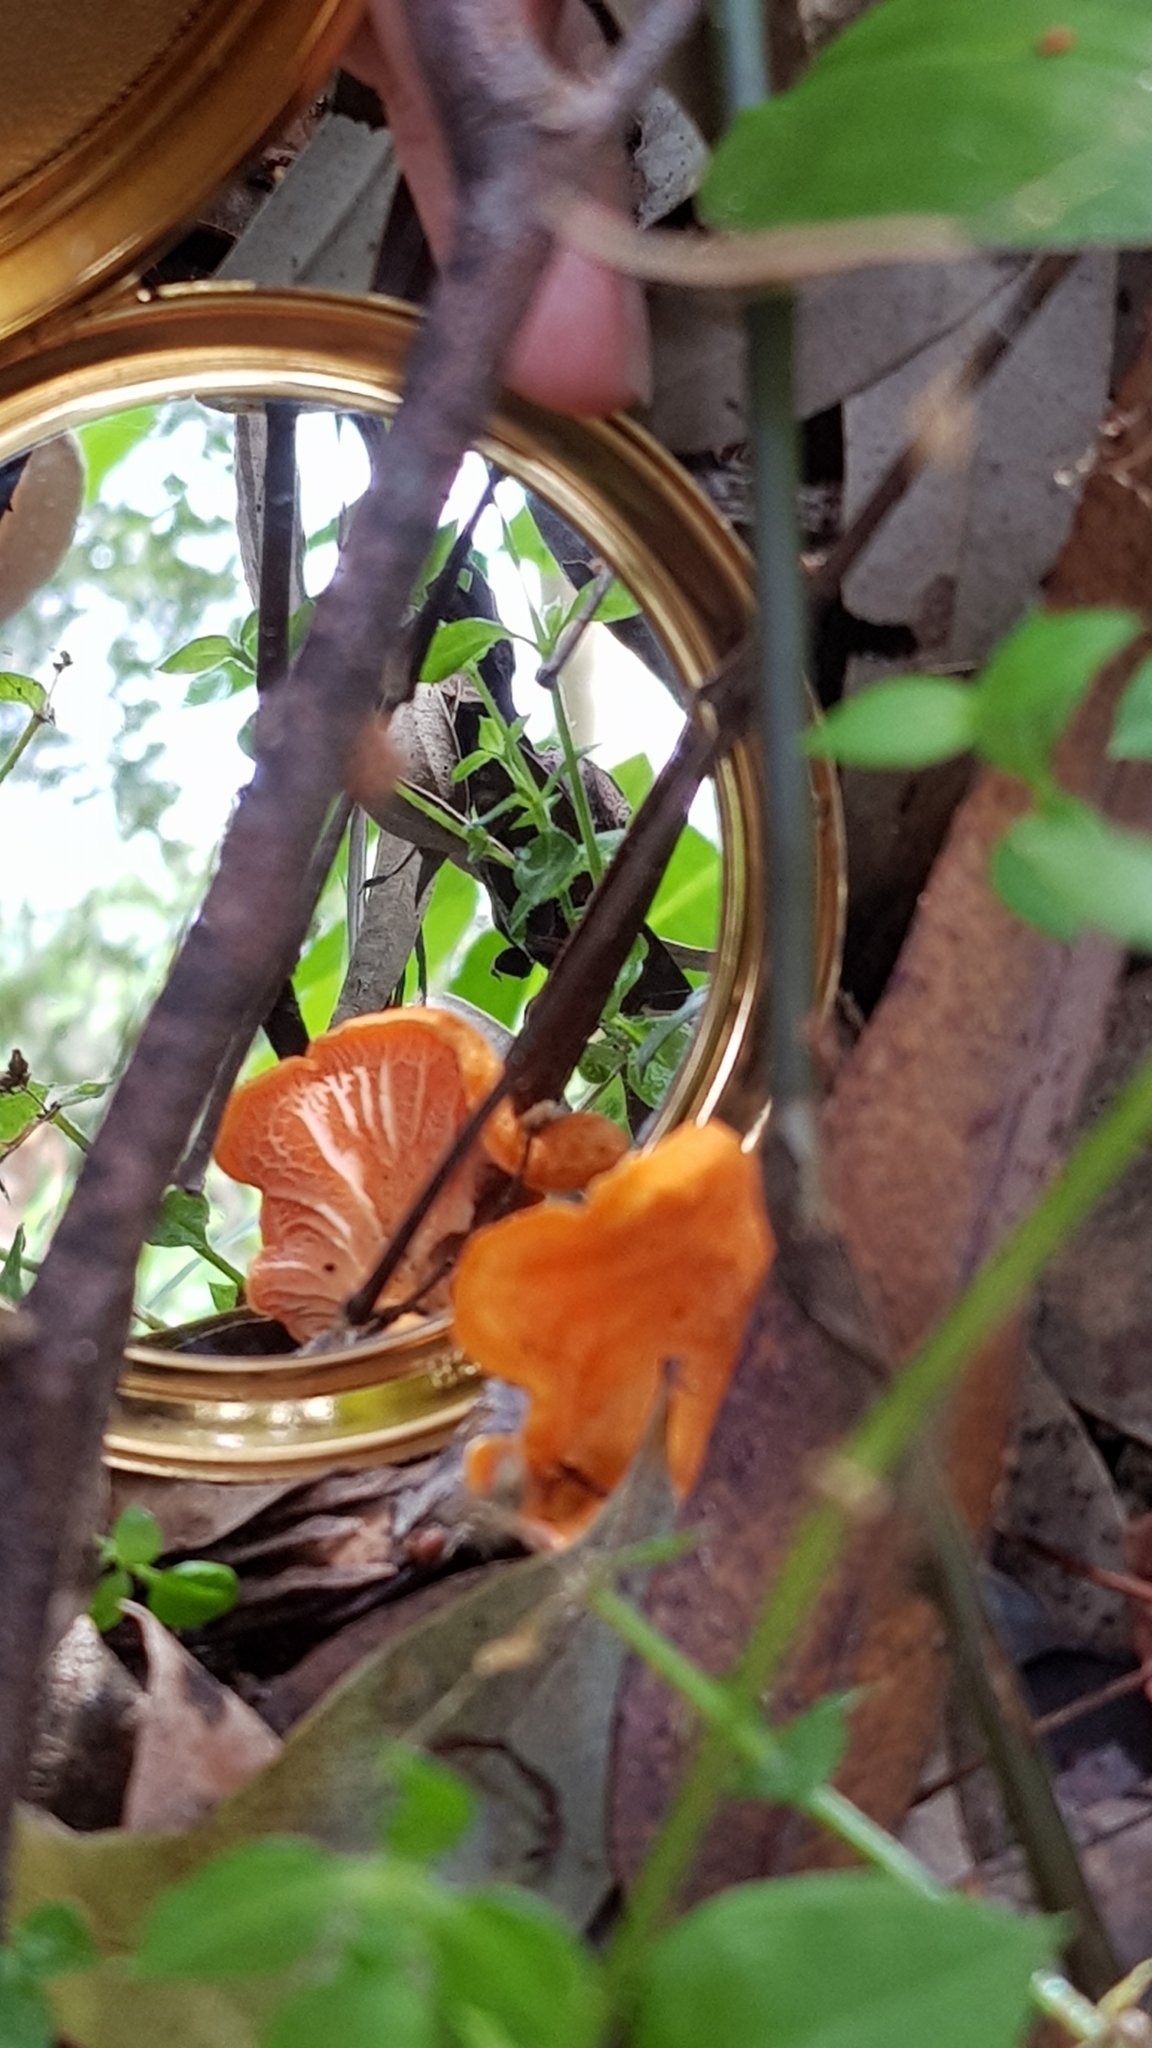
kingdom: Fungi
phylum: Basidiomycota
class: Agaricomycetes
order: Cantharellales
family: Hydnaceae
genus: Cantharellus
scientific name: Cantharellus
